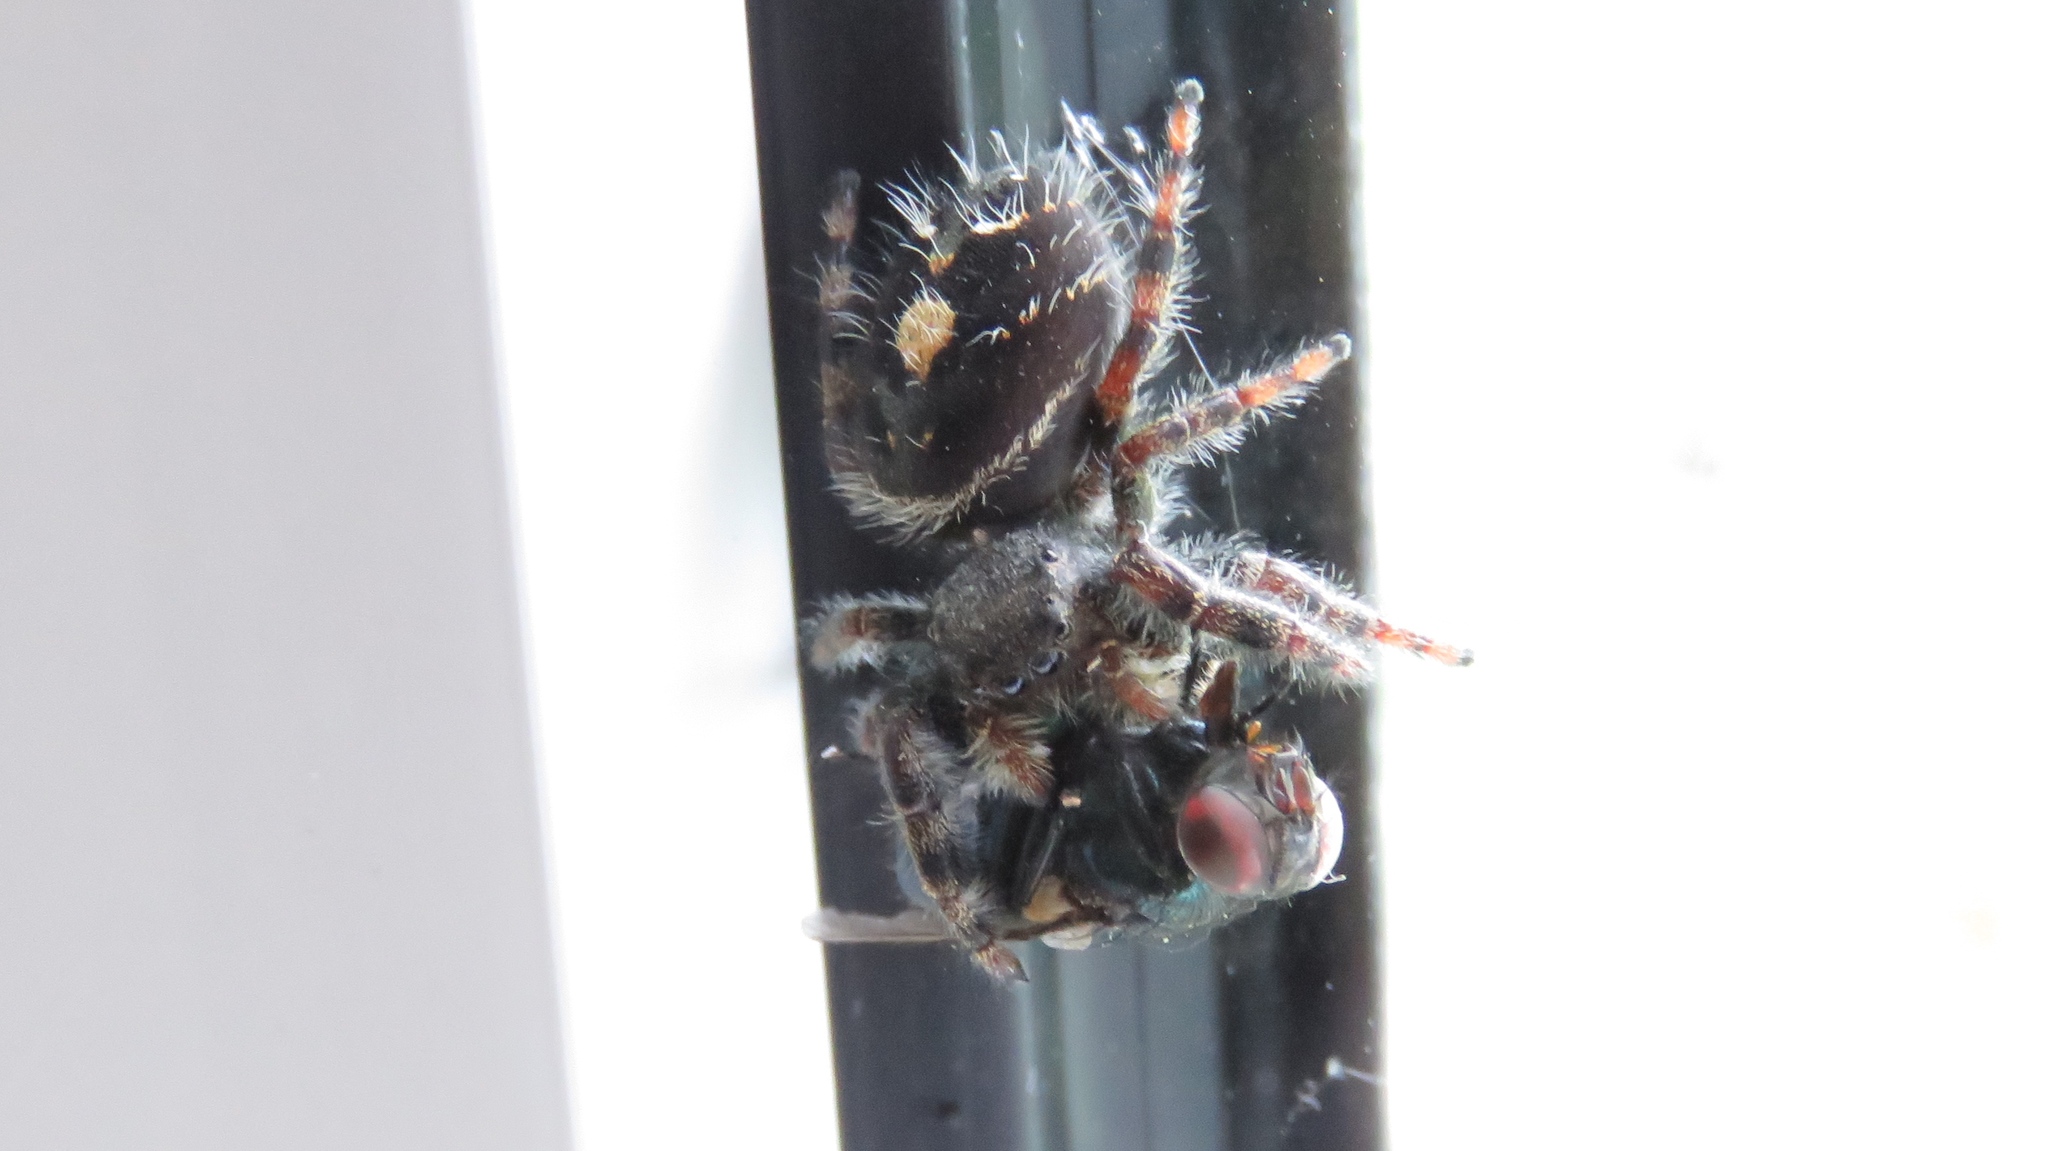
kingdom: Animalia
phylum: Arthropoda
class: Arachnida
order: Araneae
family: Salticidae
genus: Phidippus
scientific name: Phidippus audax
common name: Bold jumper
